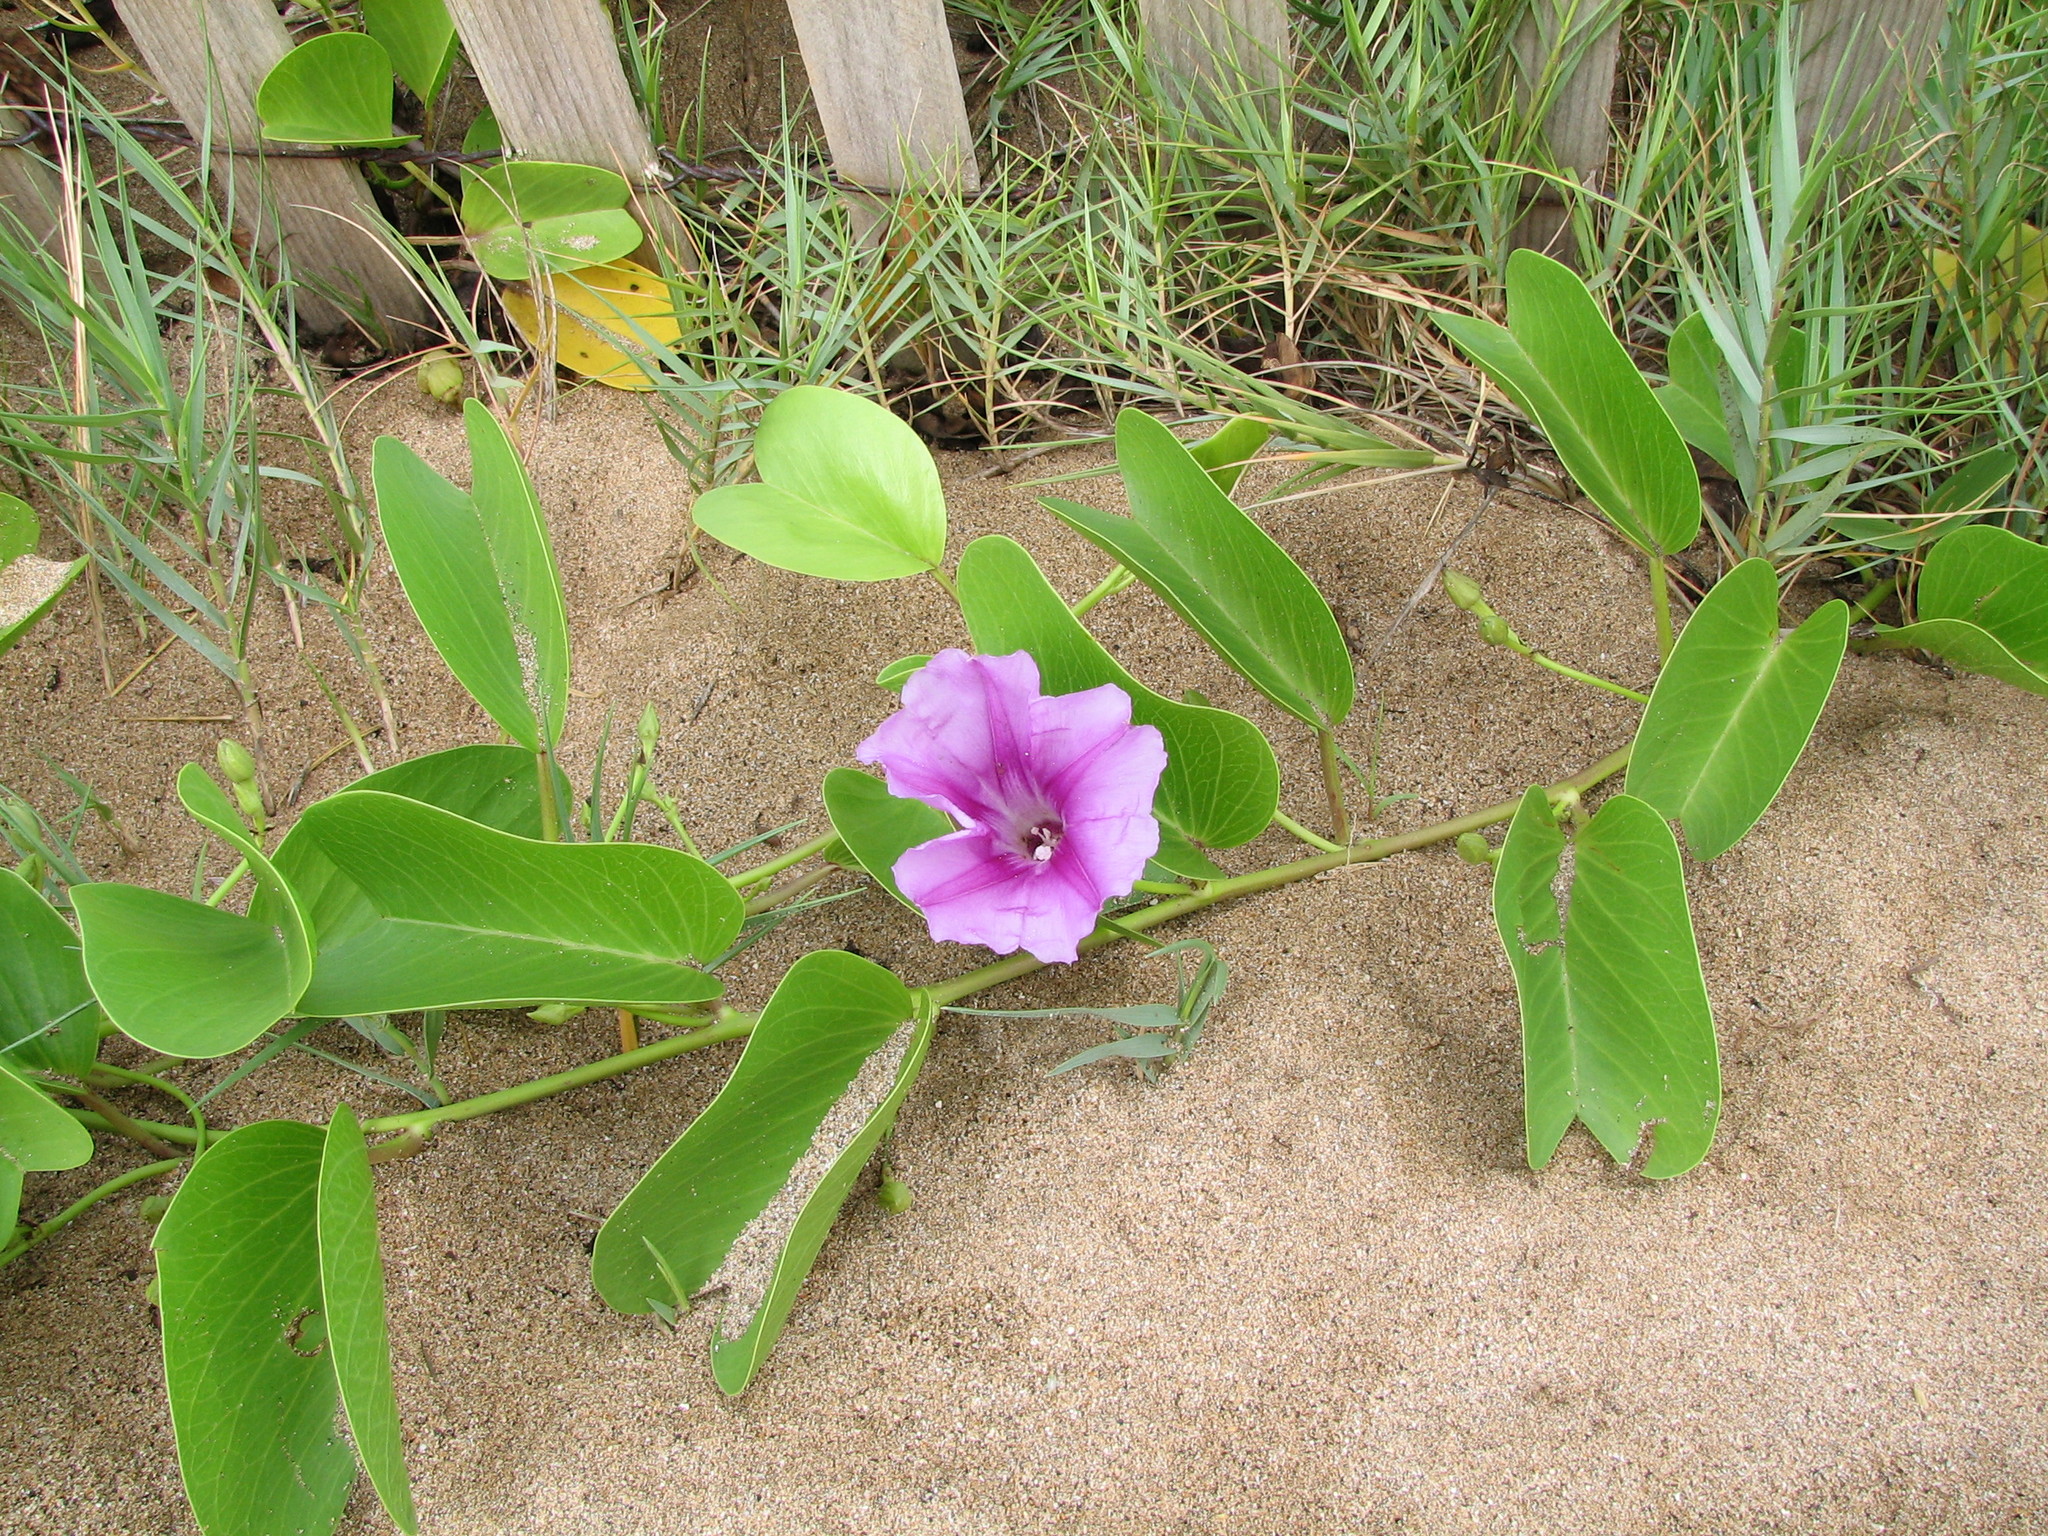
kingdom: Plantae
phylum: Tracheophyta
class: Magnoliopsida
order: Solanales
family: Convolvulaceae
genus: Ipomoea
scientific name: Ipomoea pes-caprae
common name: Beach morning glory
